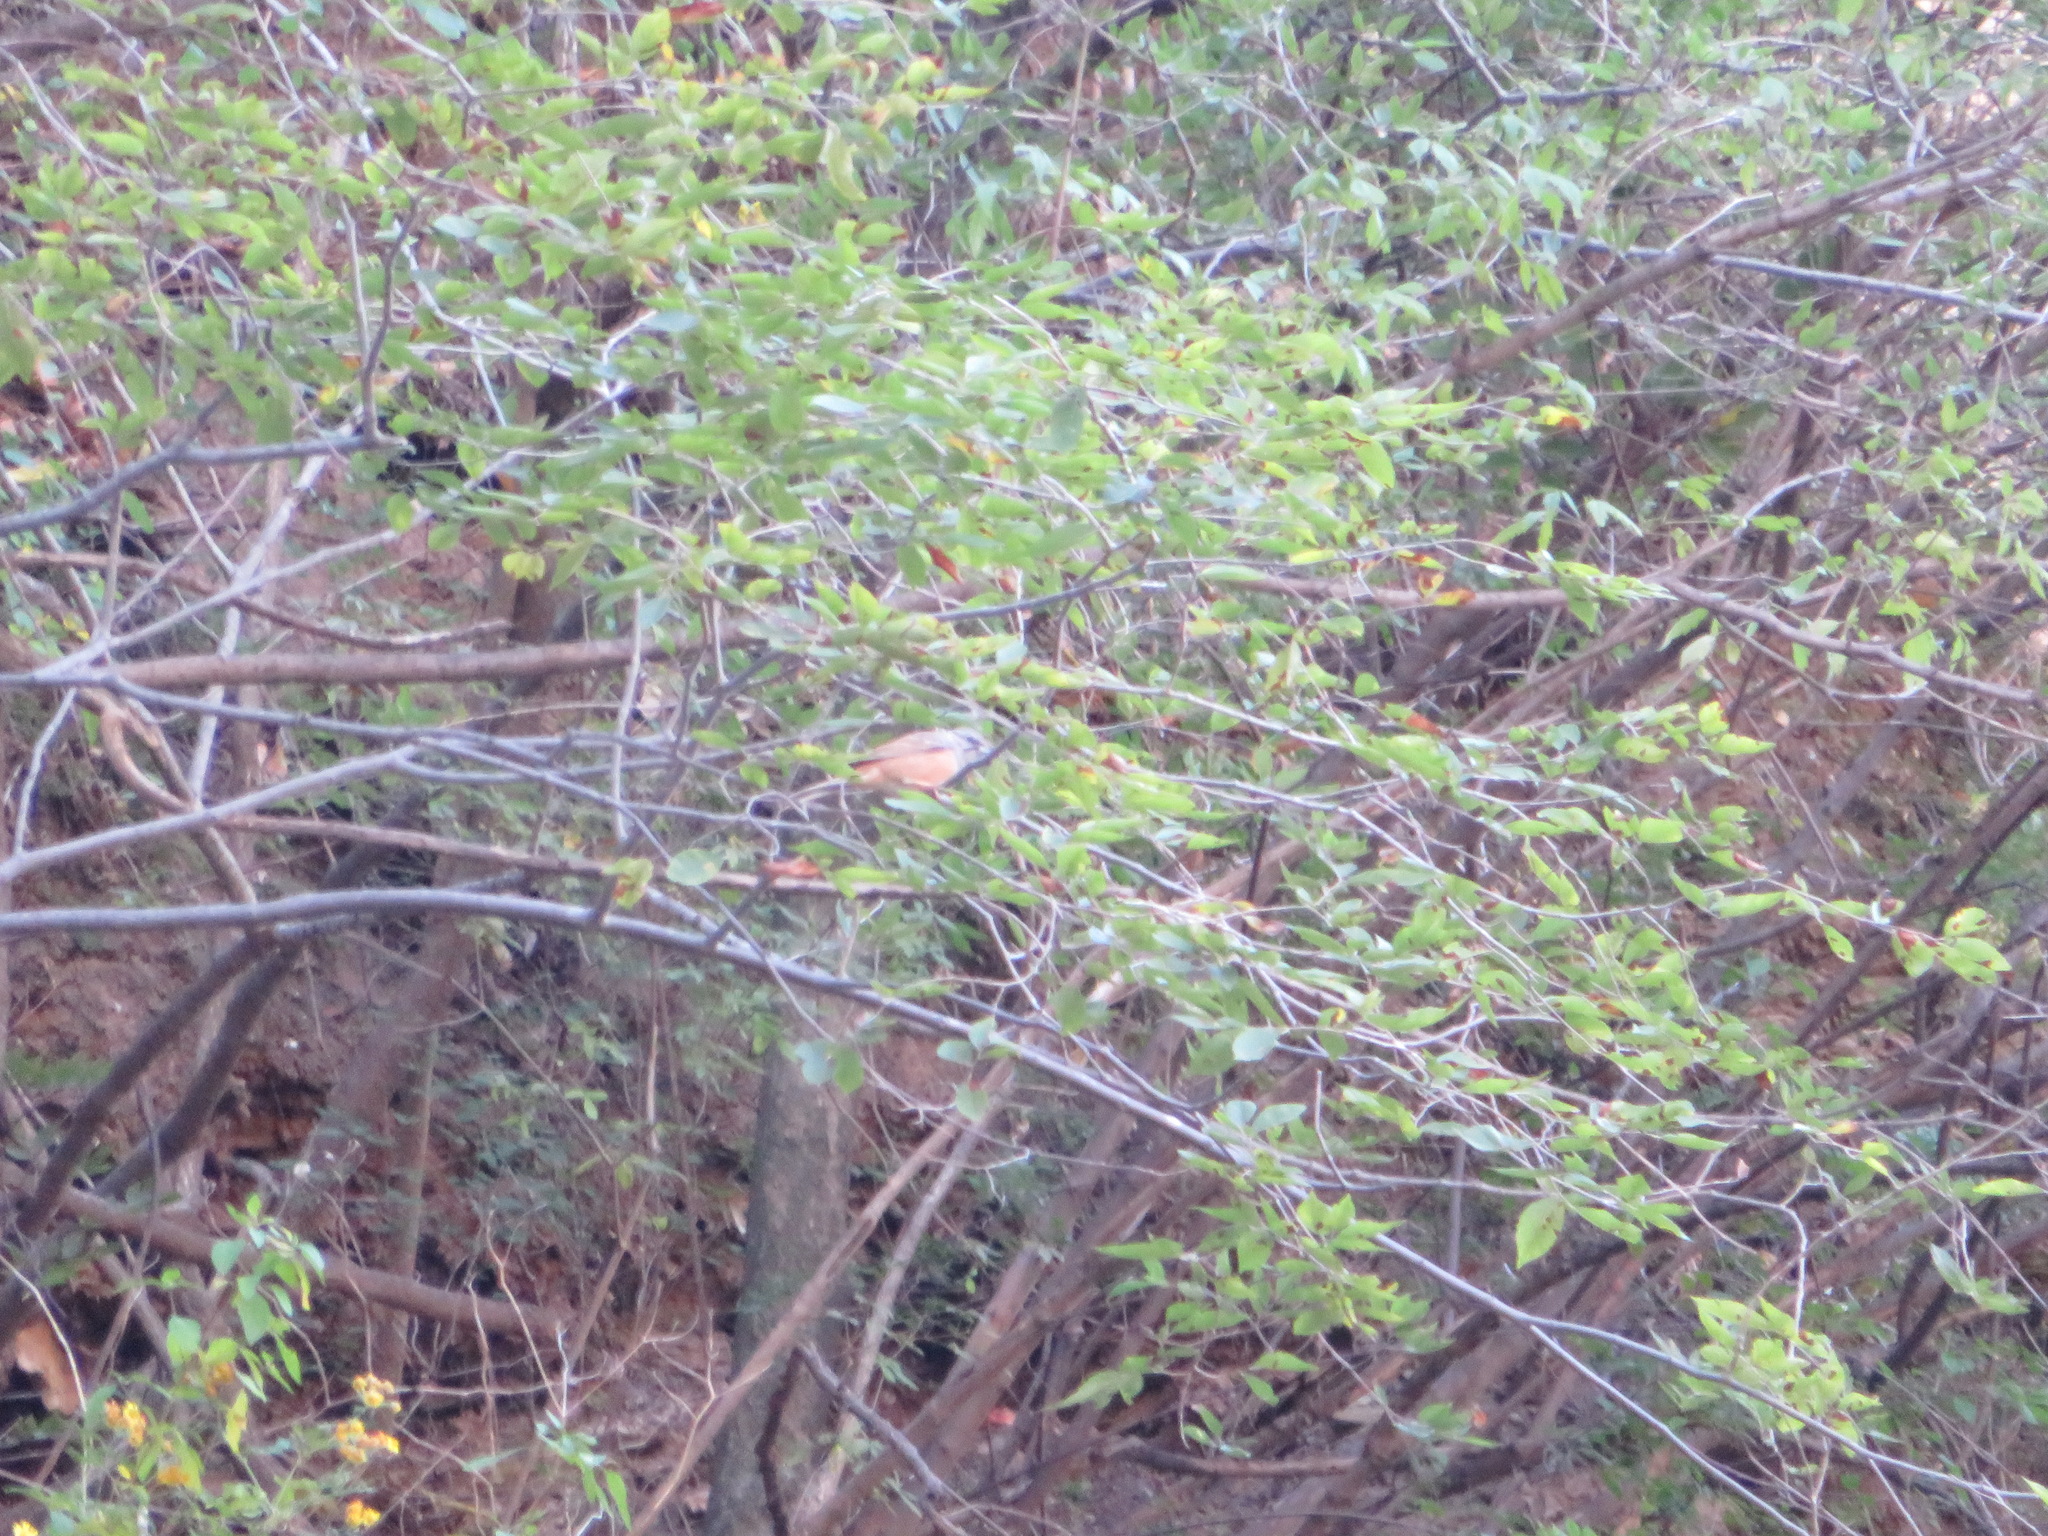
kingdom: Animalia
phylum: Chordata
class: Aves
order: Passeriformes
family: Emberizidae
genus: Emberiza
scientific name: Emberiza godlewskii
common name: Godlewski's bunting
